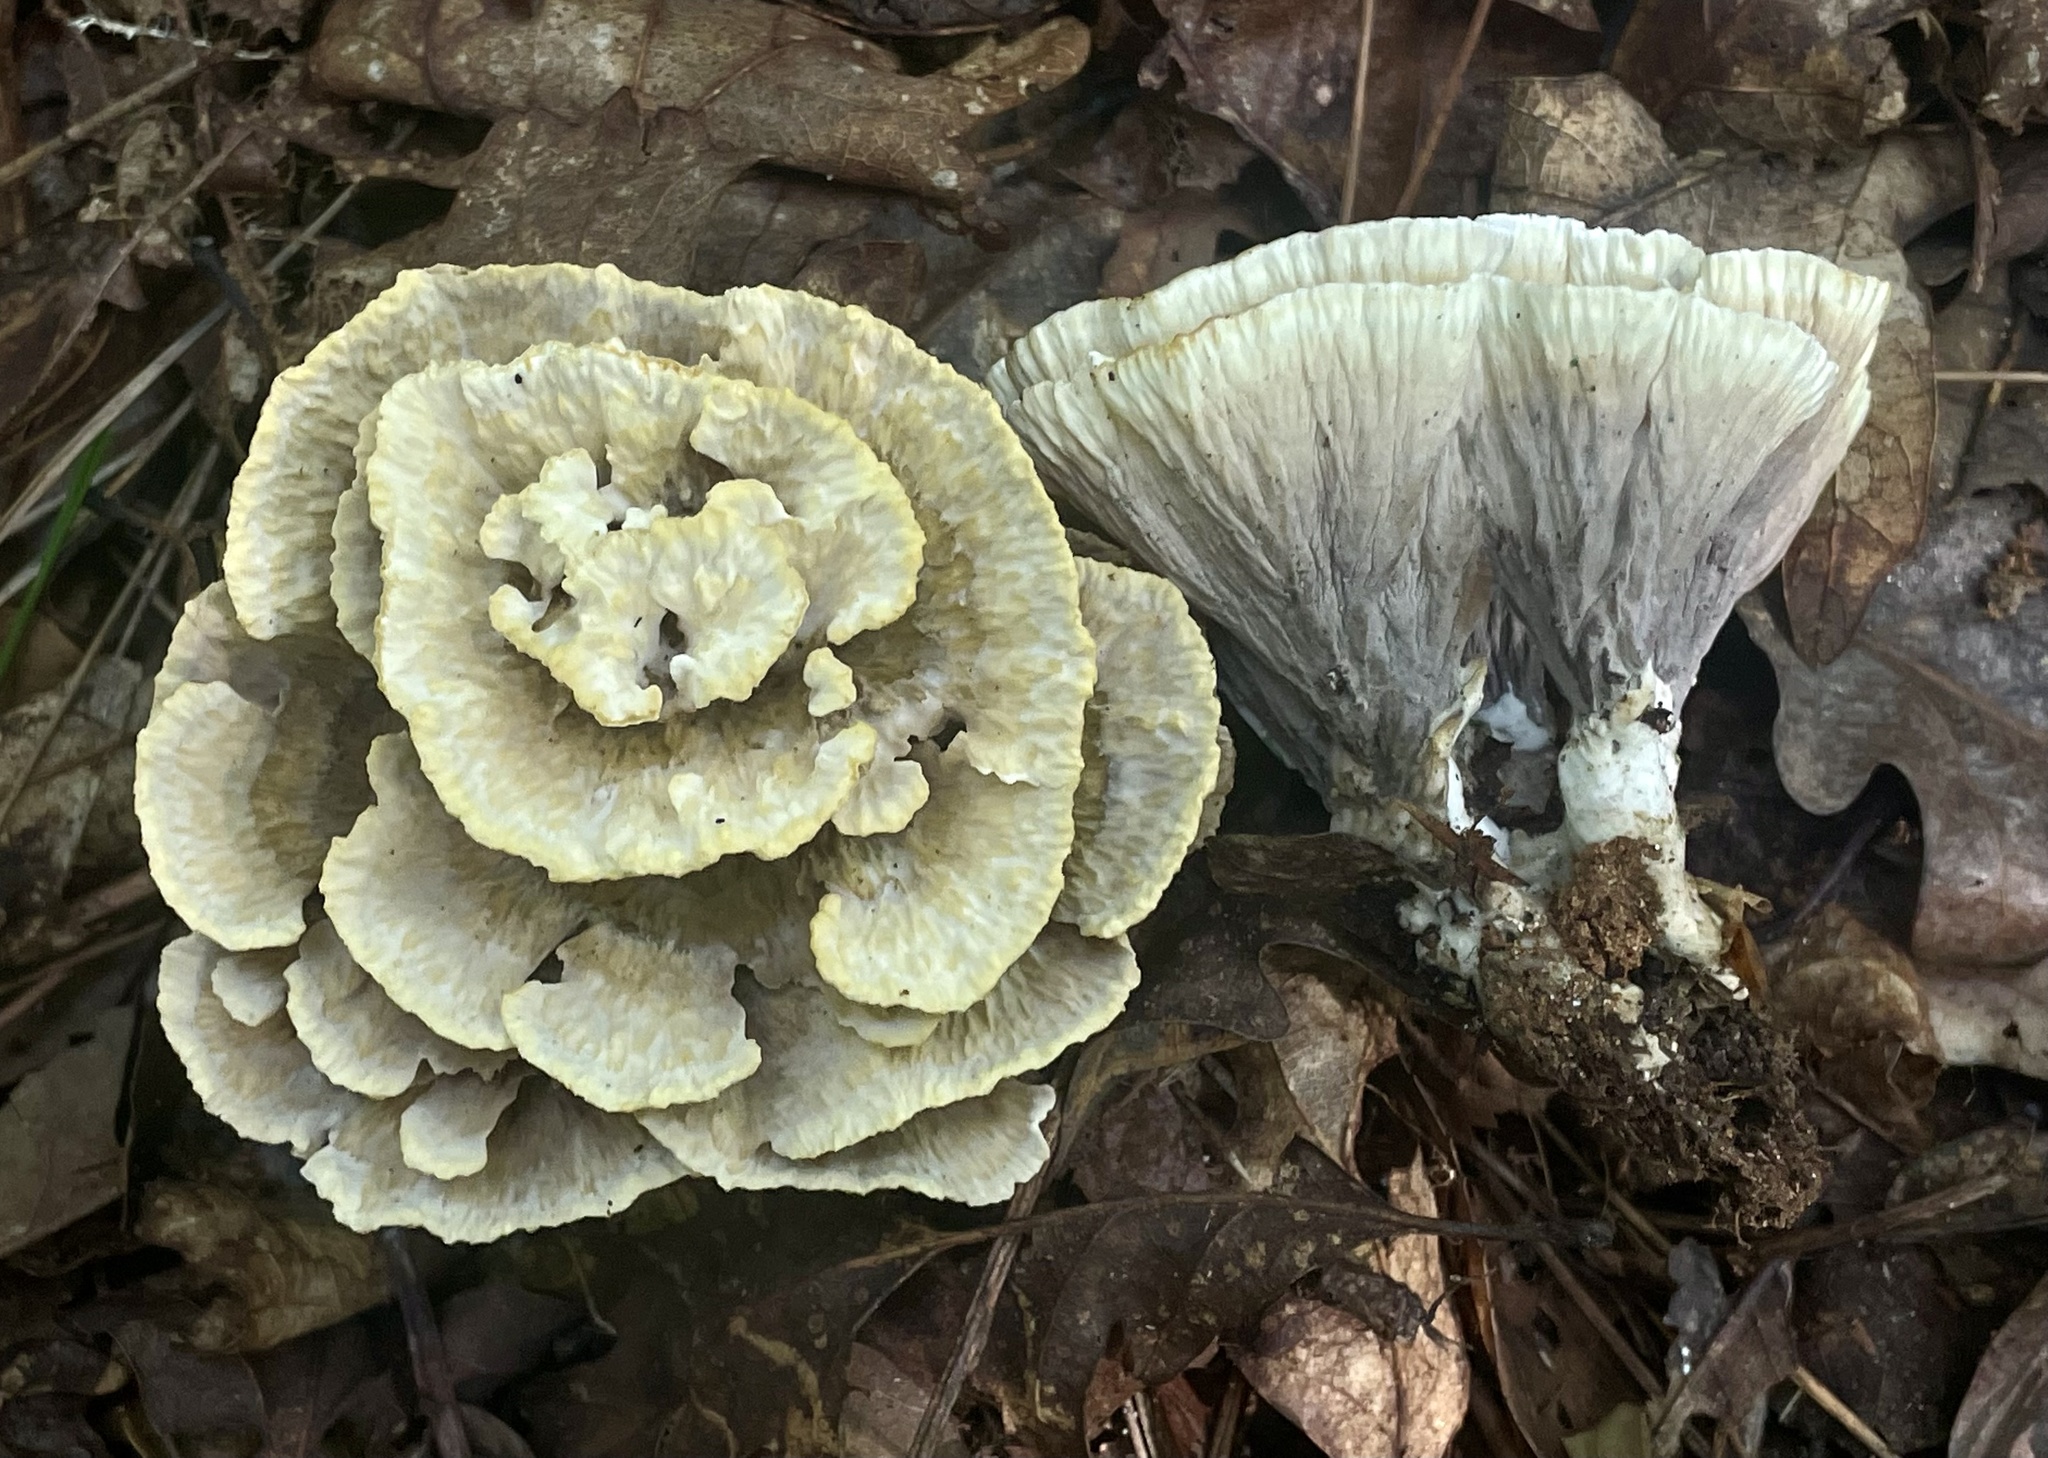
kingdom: Fungi
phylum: Basidiomycota
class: Agaricomycetes
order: Thelephorales
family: Thelephoraceae
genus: Thelephora
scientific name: Thelephora vialis
